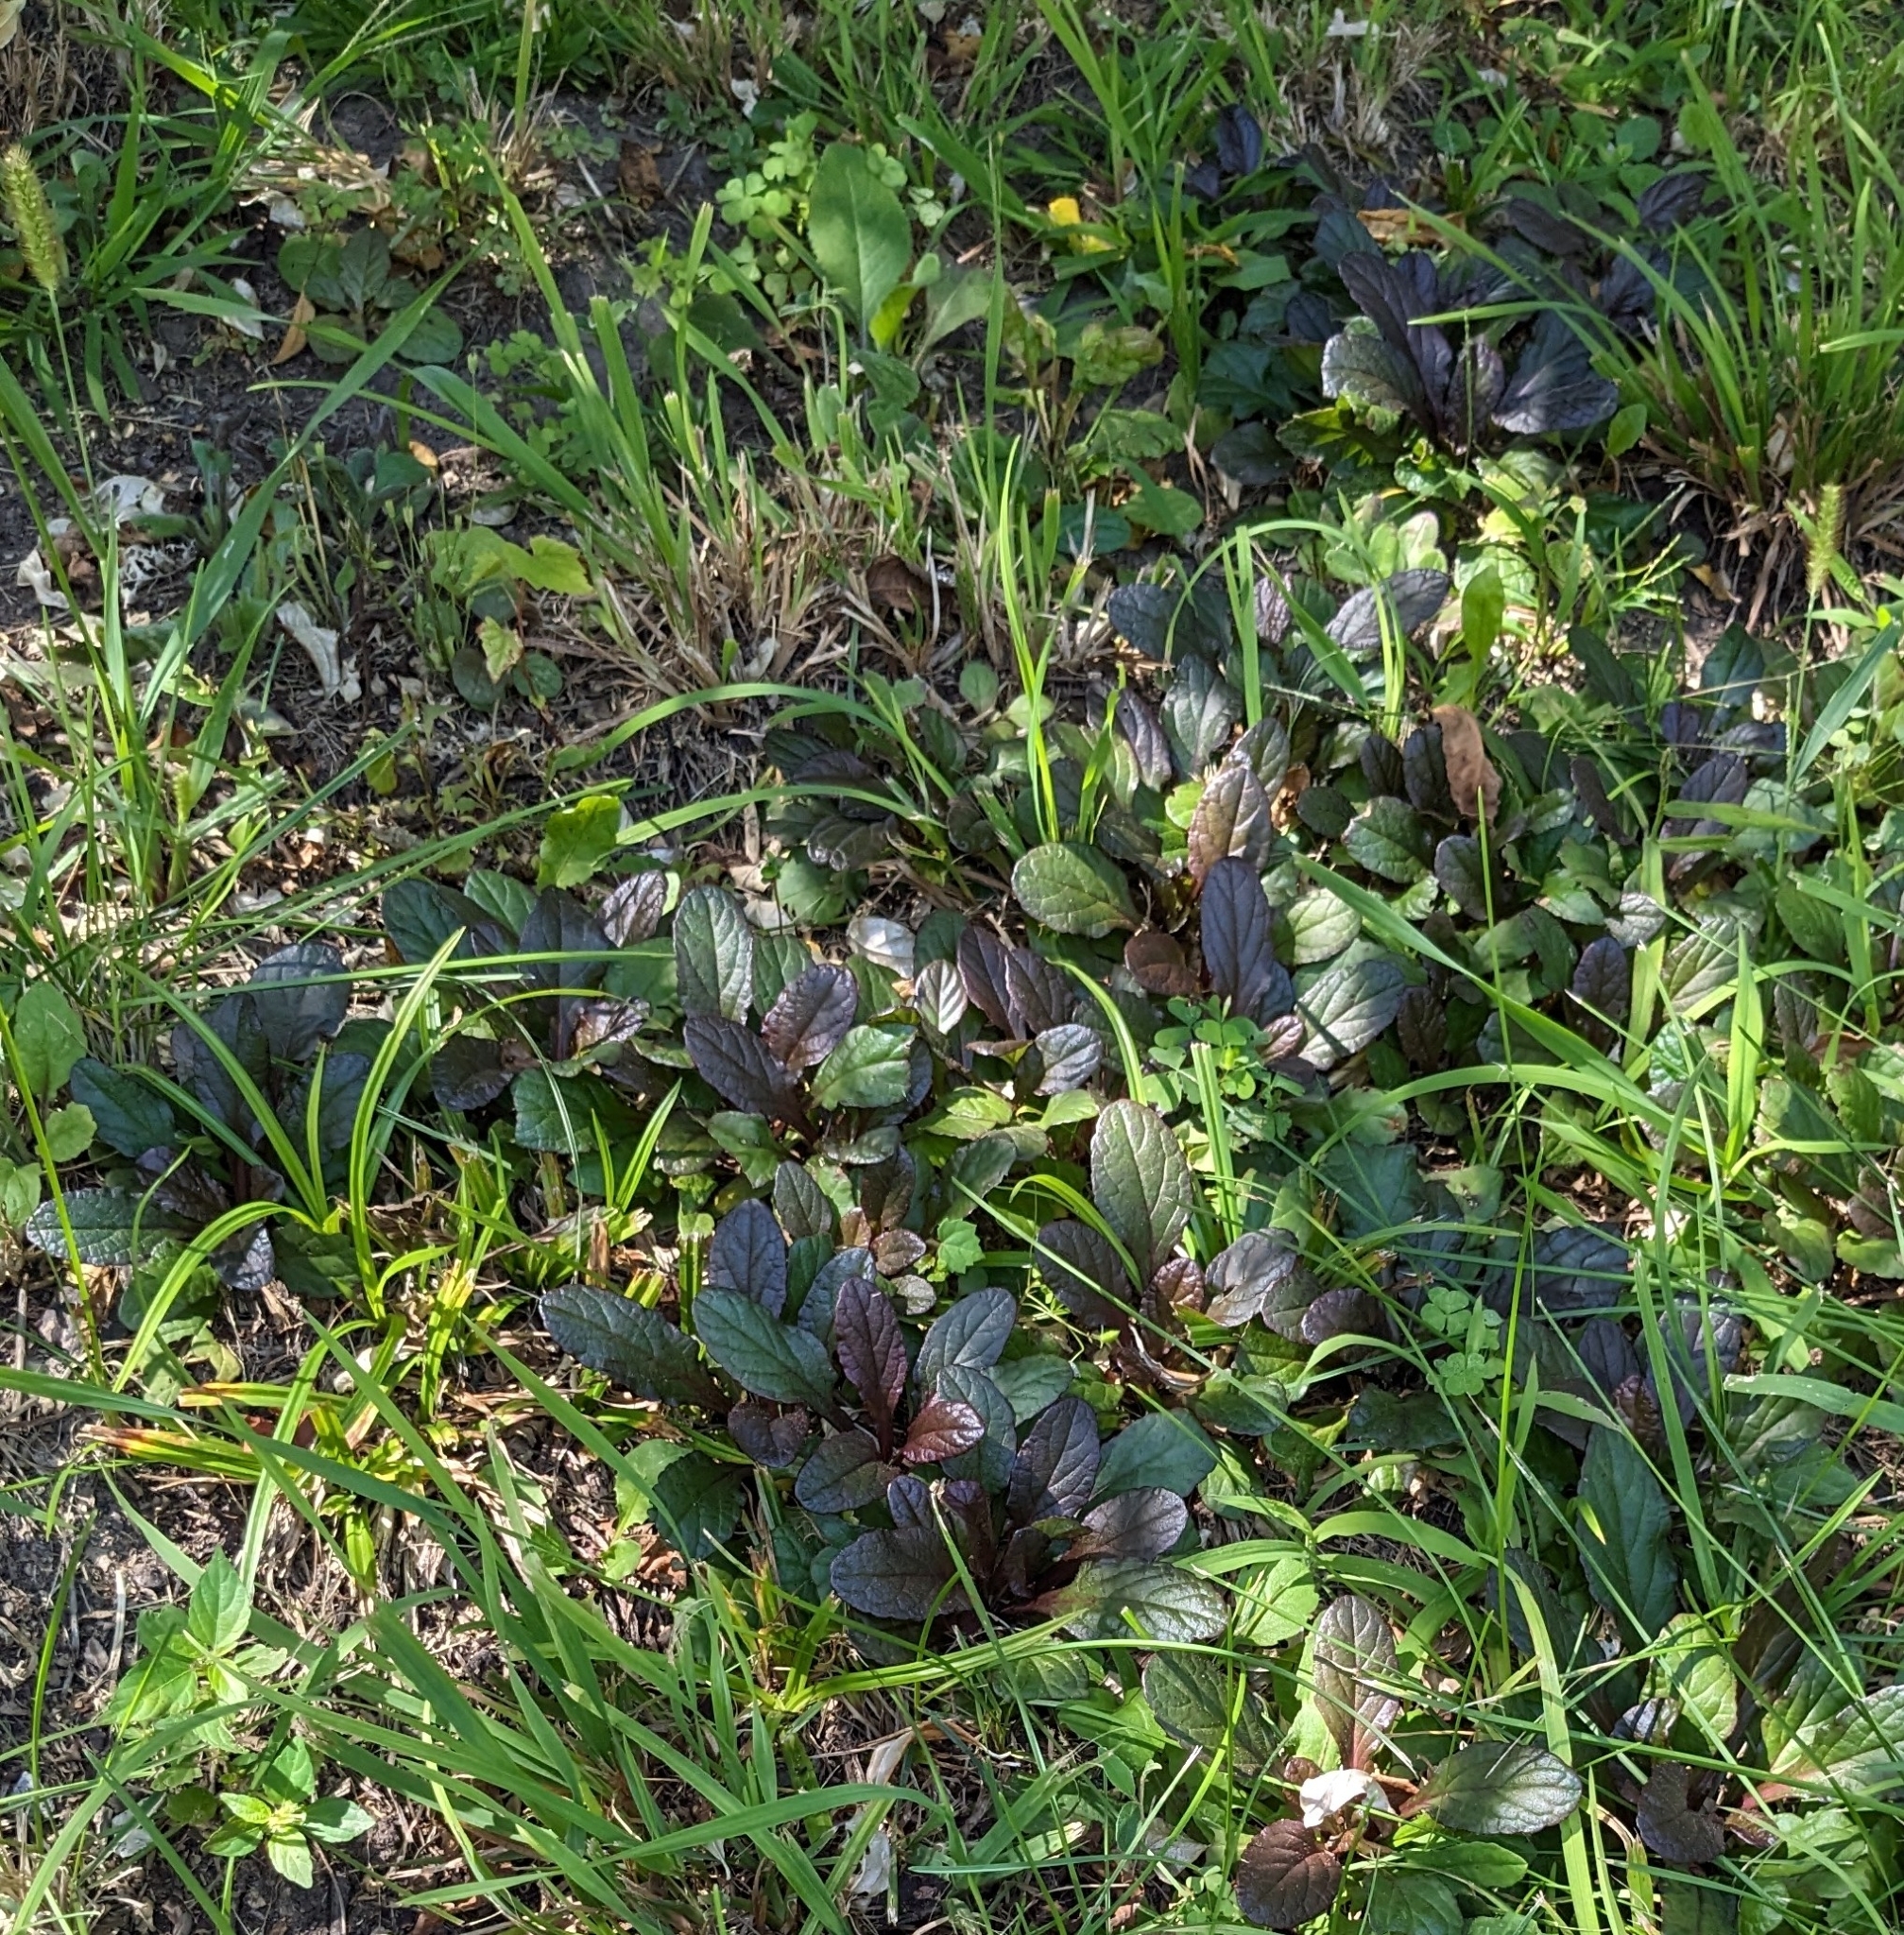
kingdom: Plantae
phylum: Tracheophyta
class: Magnoliopsida
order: Lamiales
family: Lamiaceae
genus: Ajuga
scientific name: Ajuga reptans
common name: Bugle
